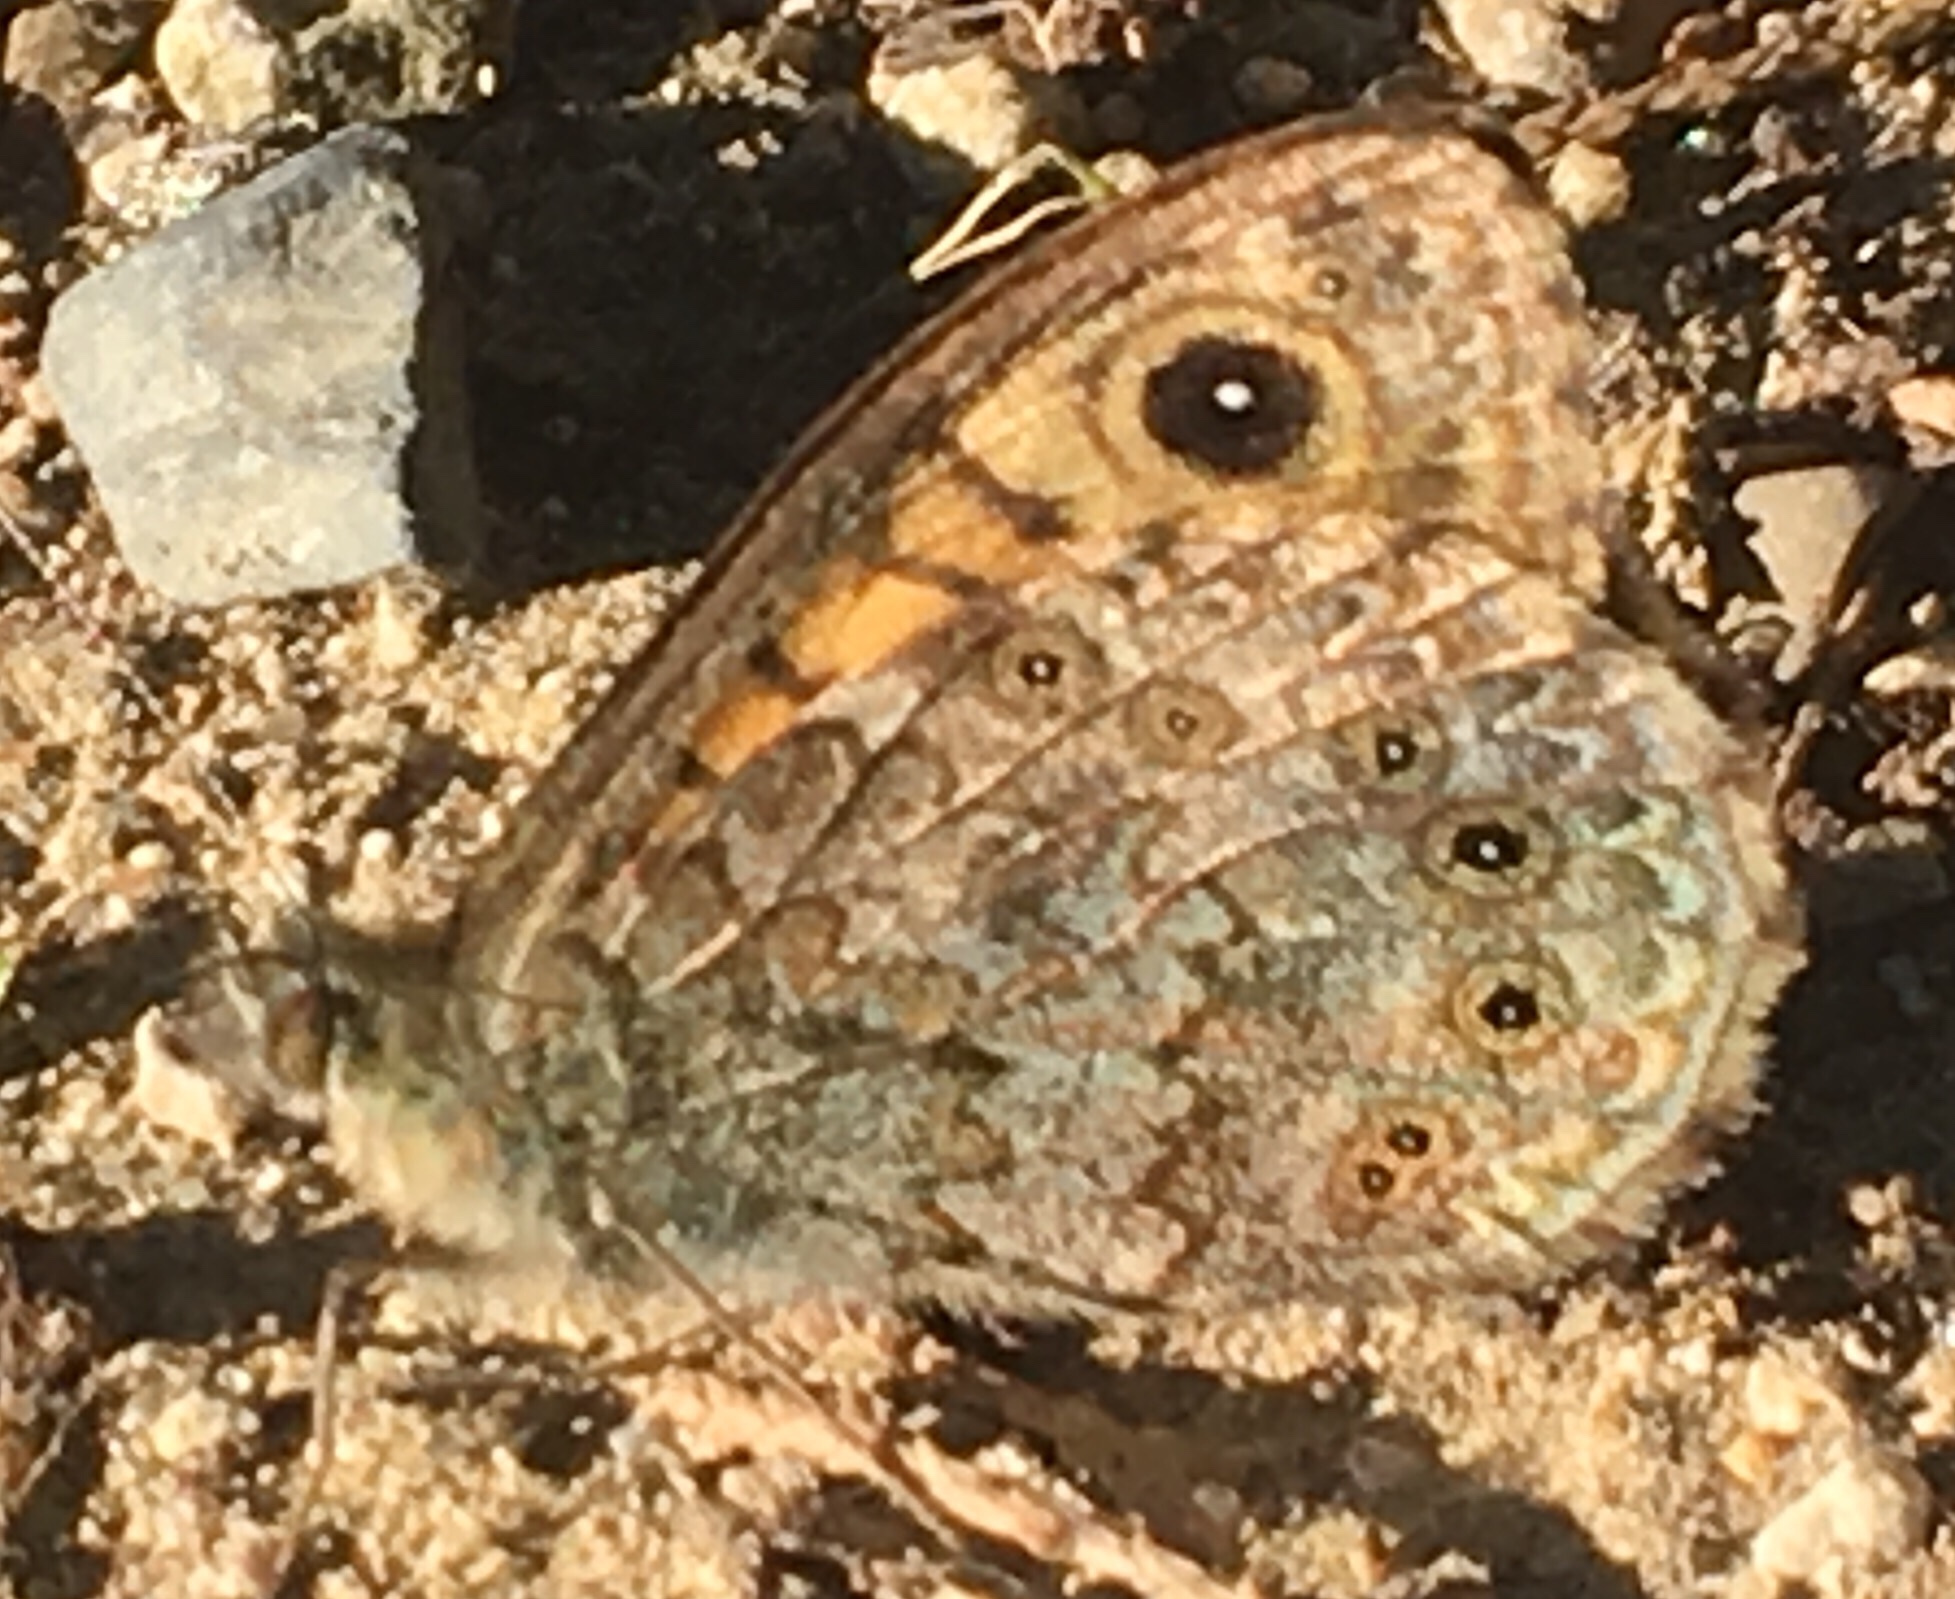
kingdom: Animalia
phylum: Arthropoda
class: Insecta
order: Lepidoptera
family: Nymphalidae
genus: Pararge
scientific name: Pararge Lasiommata megera
